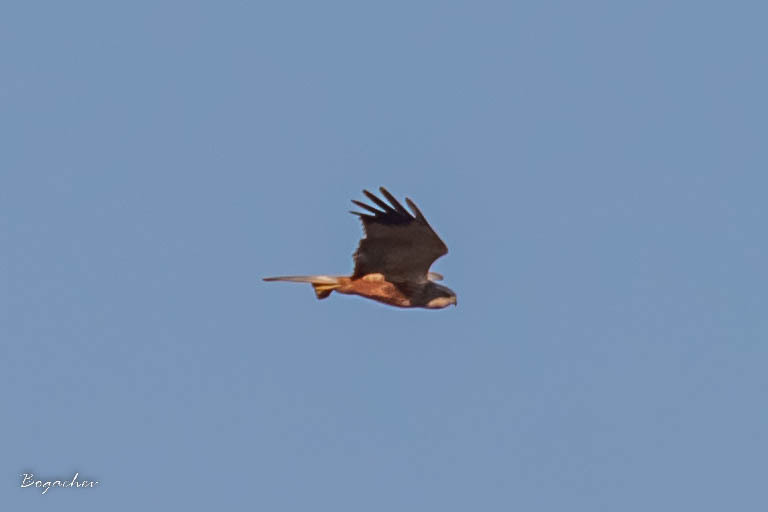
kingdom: Animalia
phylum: Chordata
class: Aves
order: Accipitriformes
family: Accipitridae
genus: Circus
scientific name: Circus aeruginosus
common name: Western marsh harrier
